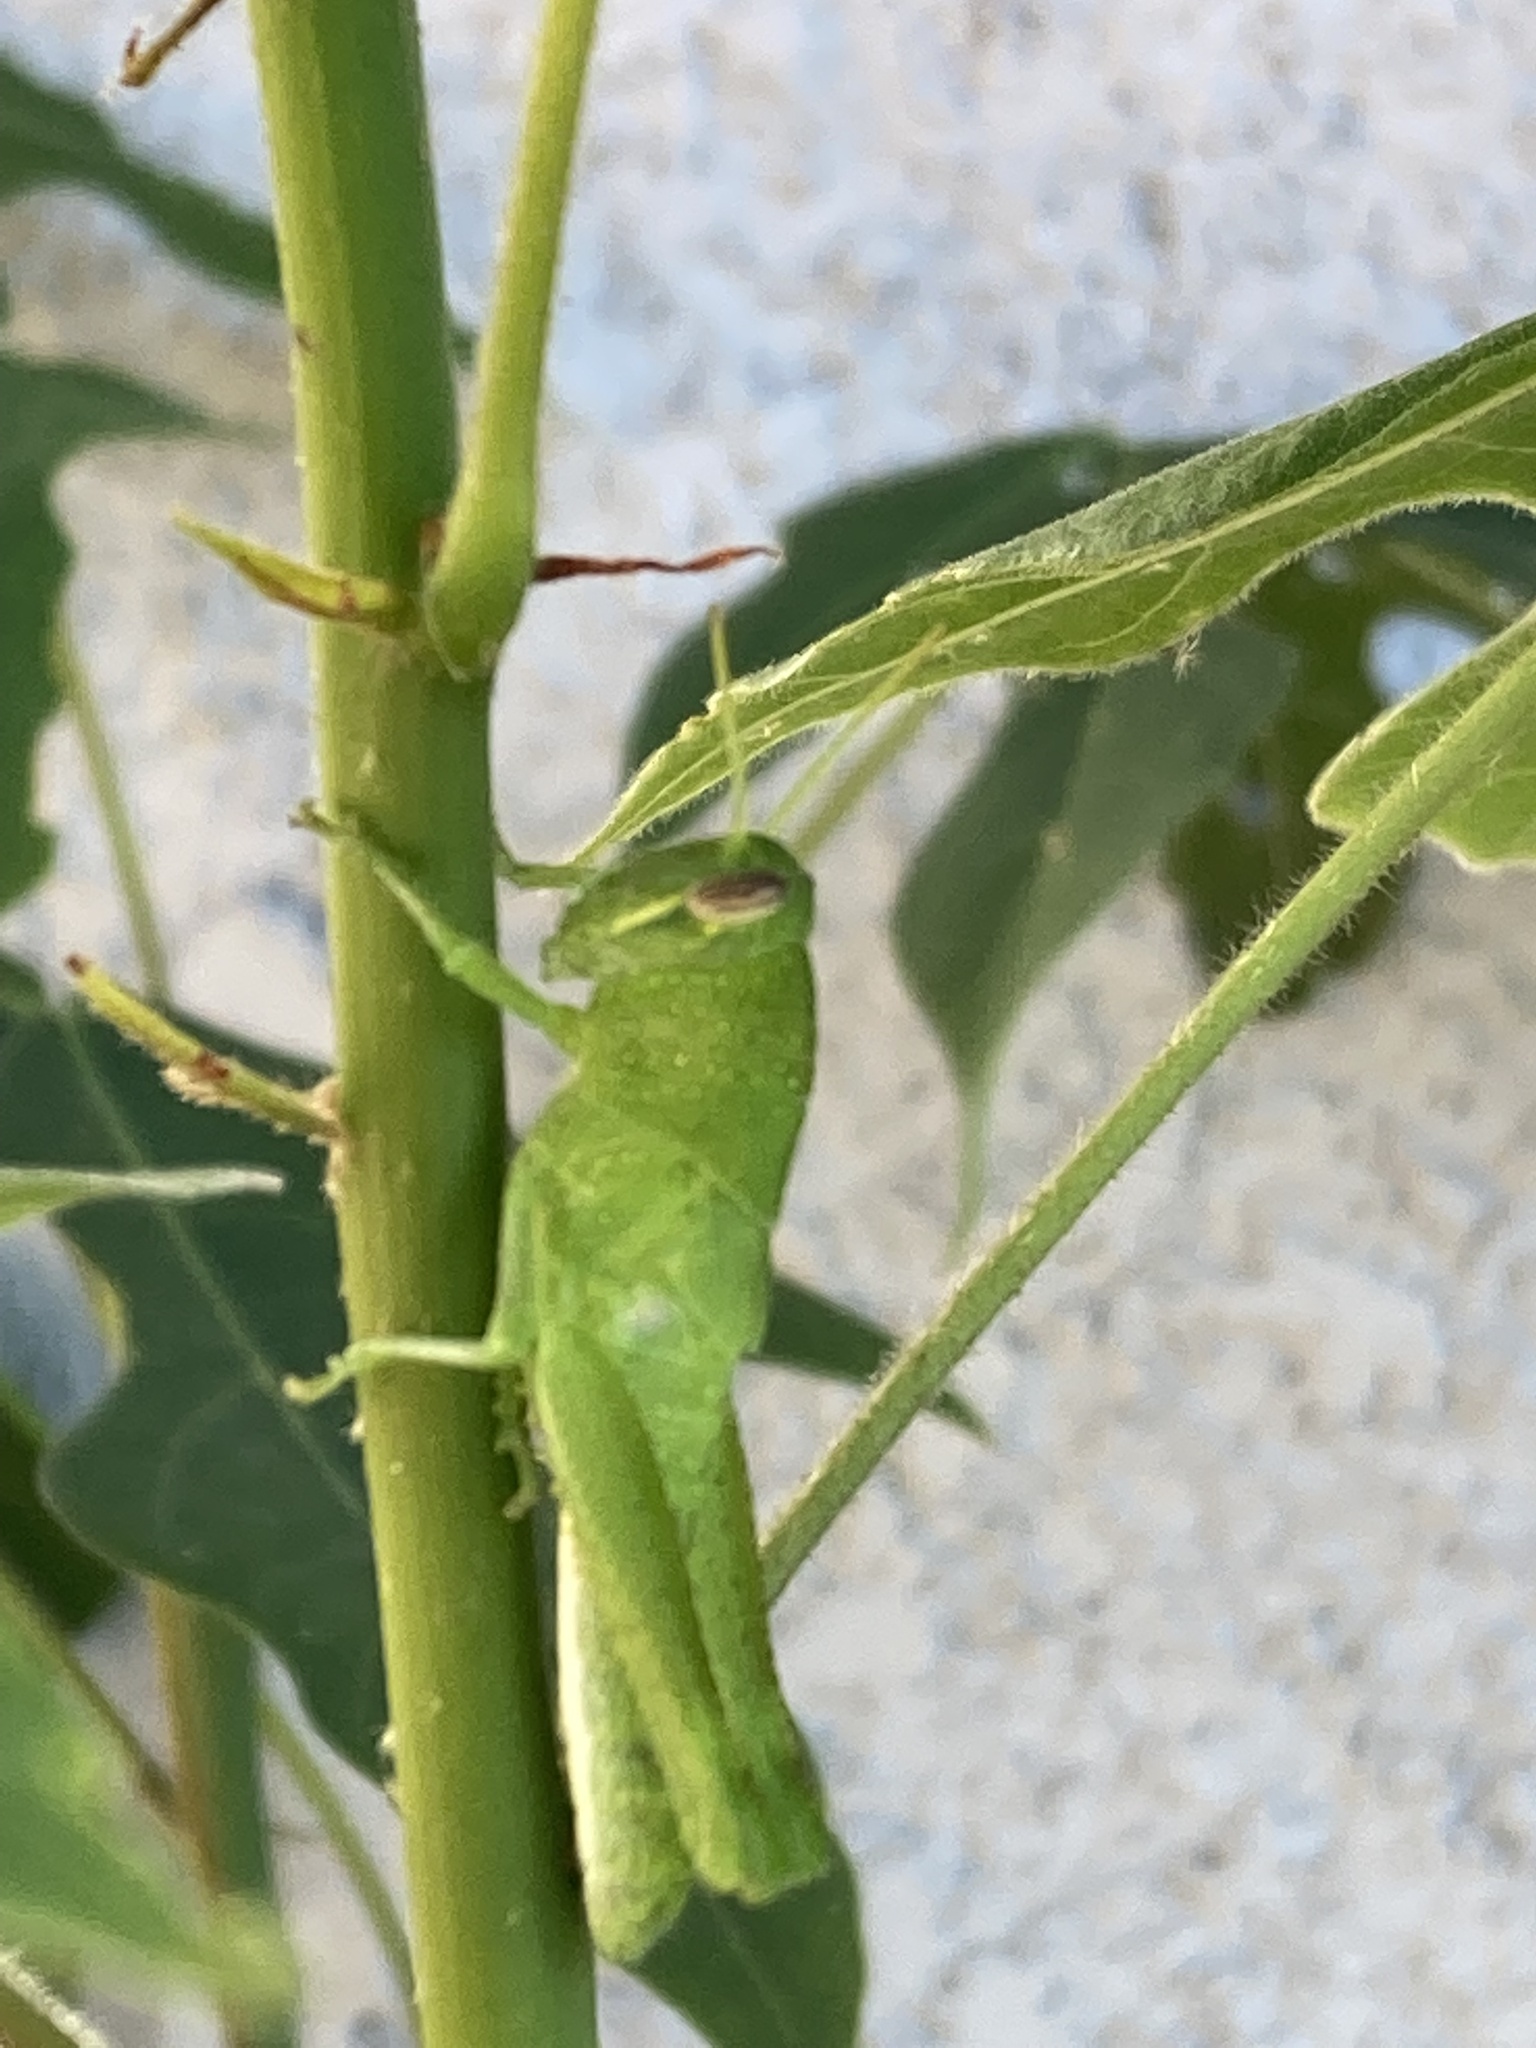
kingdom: Animalia
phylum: Arthropoda
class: Insecta
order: Orthoptera
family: Acrididae
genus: Schistocerca
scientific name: Schistocerca nitens
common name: Vagrant grasshopper
